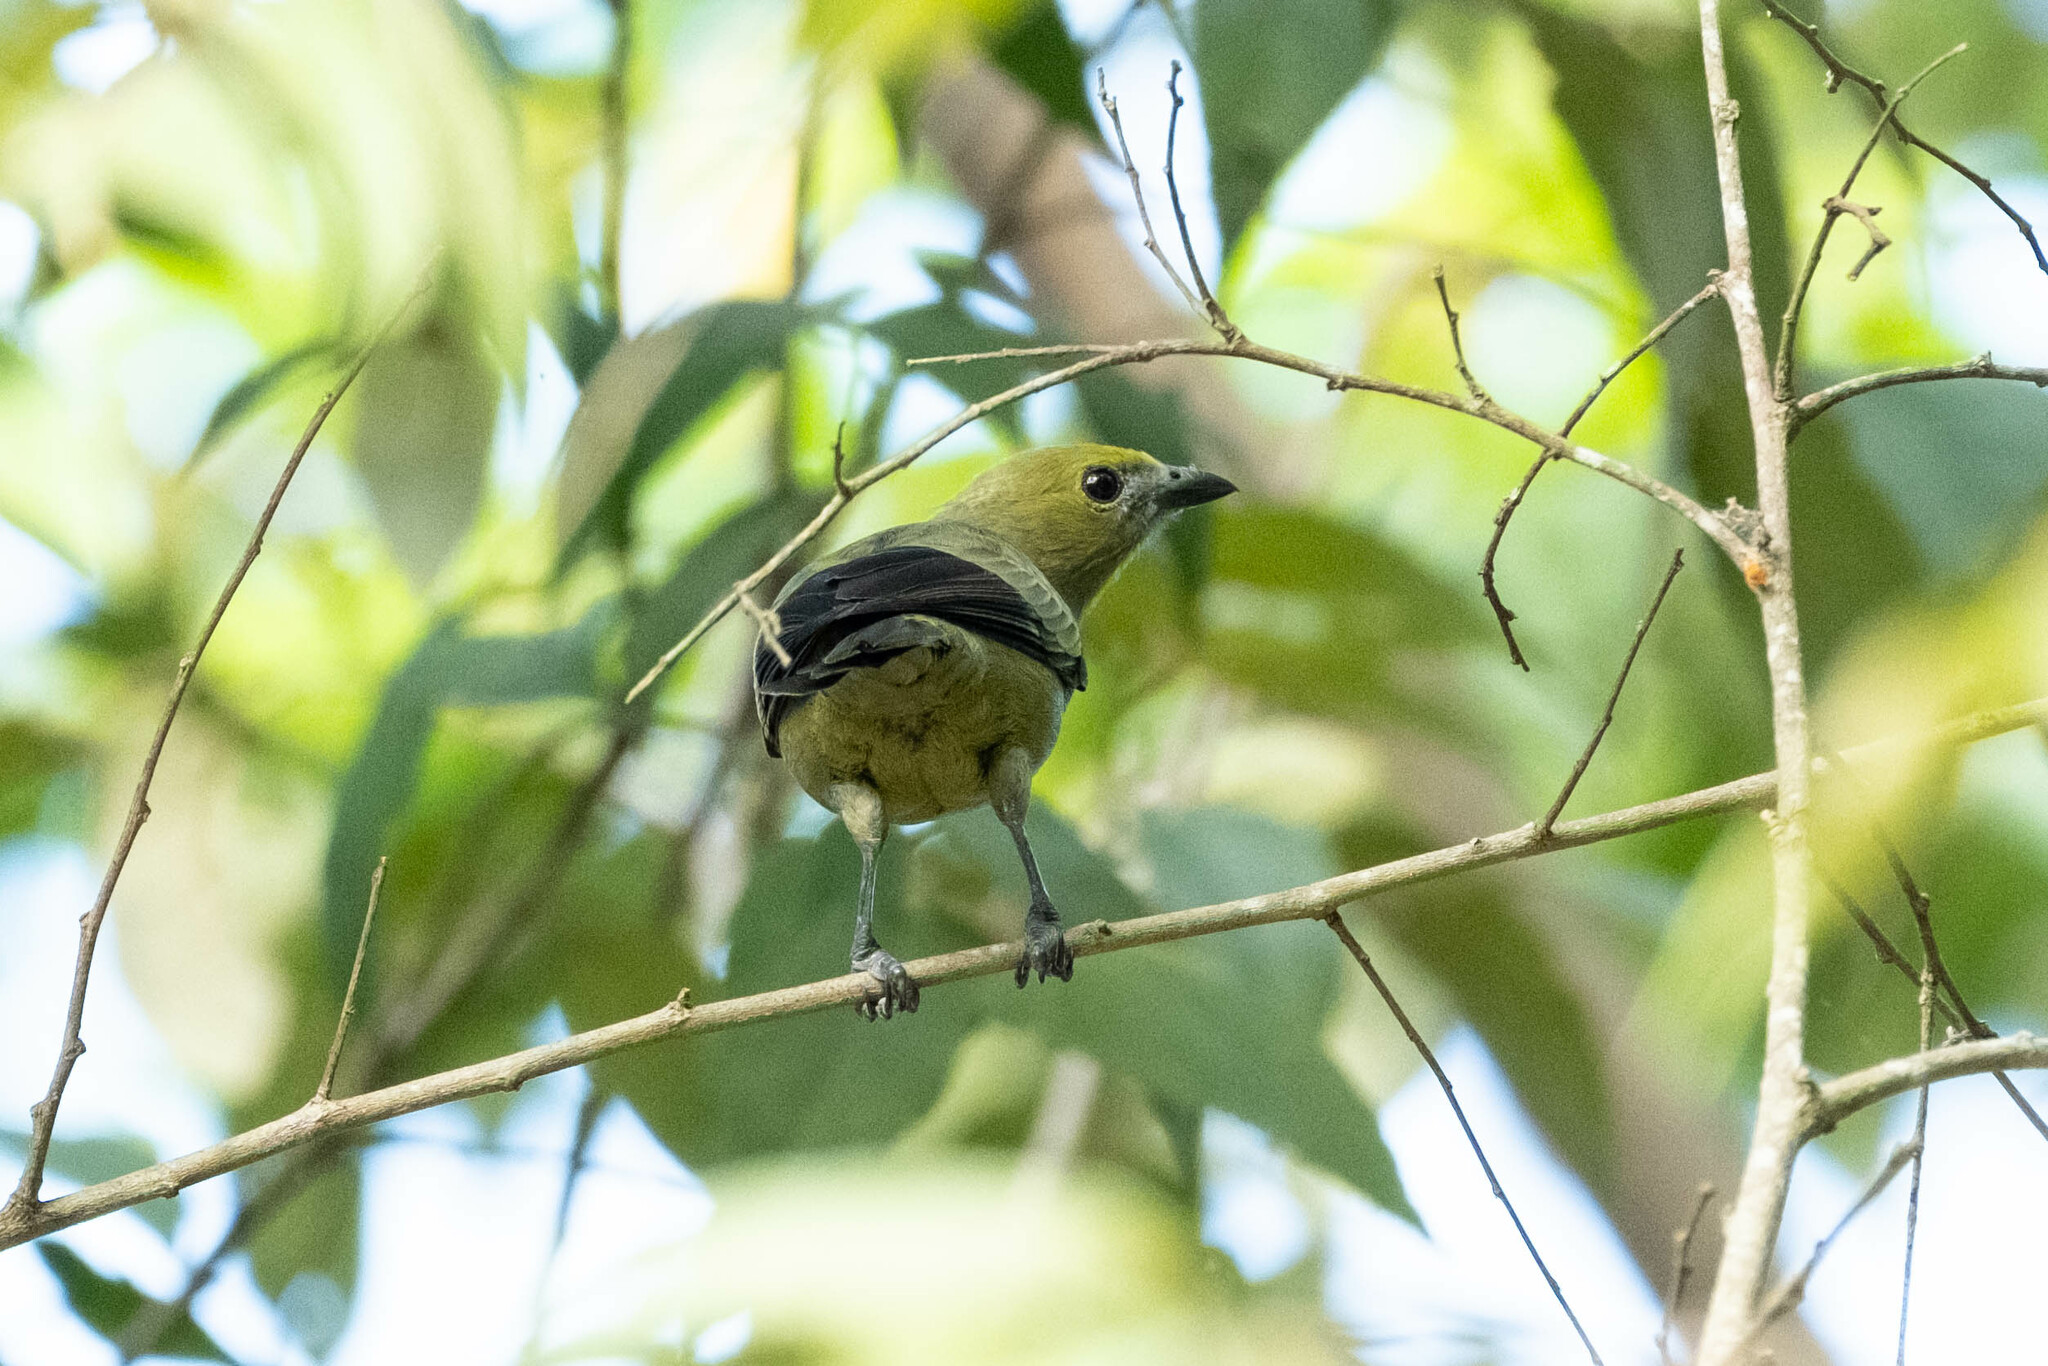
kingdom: Animalia
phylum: Chordata
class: Aves
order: Passeriformes
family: Thraupidae
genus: Thraupis
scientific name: Thraupis palmarum
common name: Palm tanager
